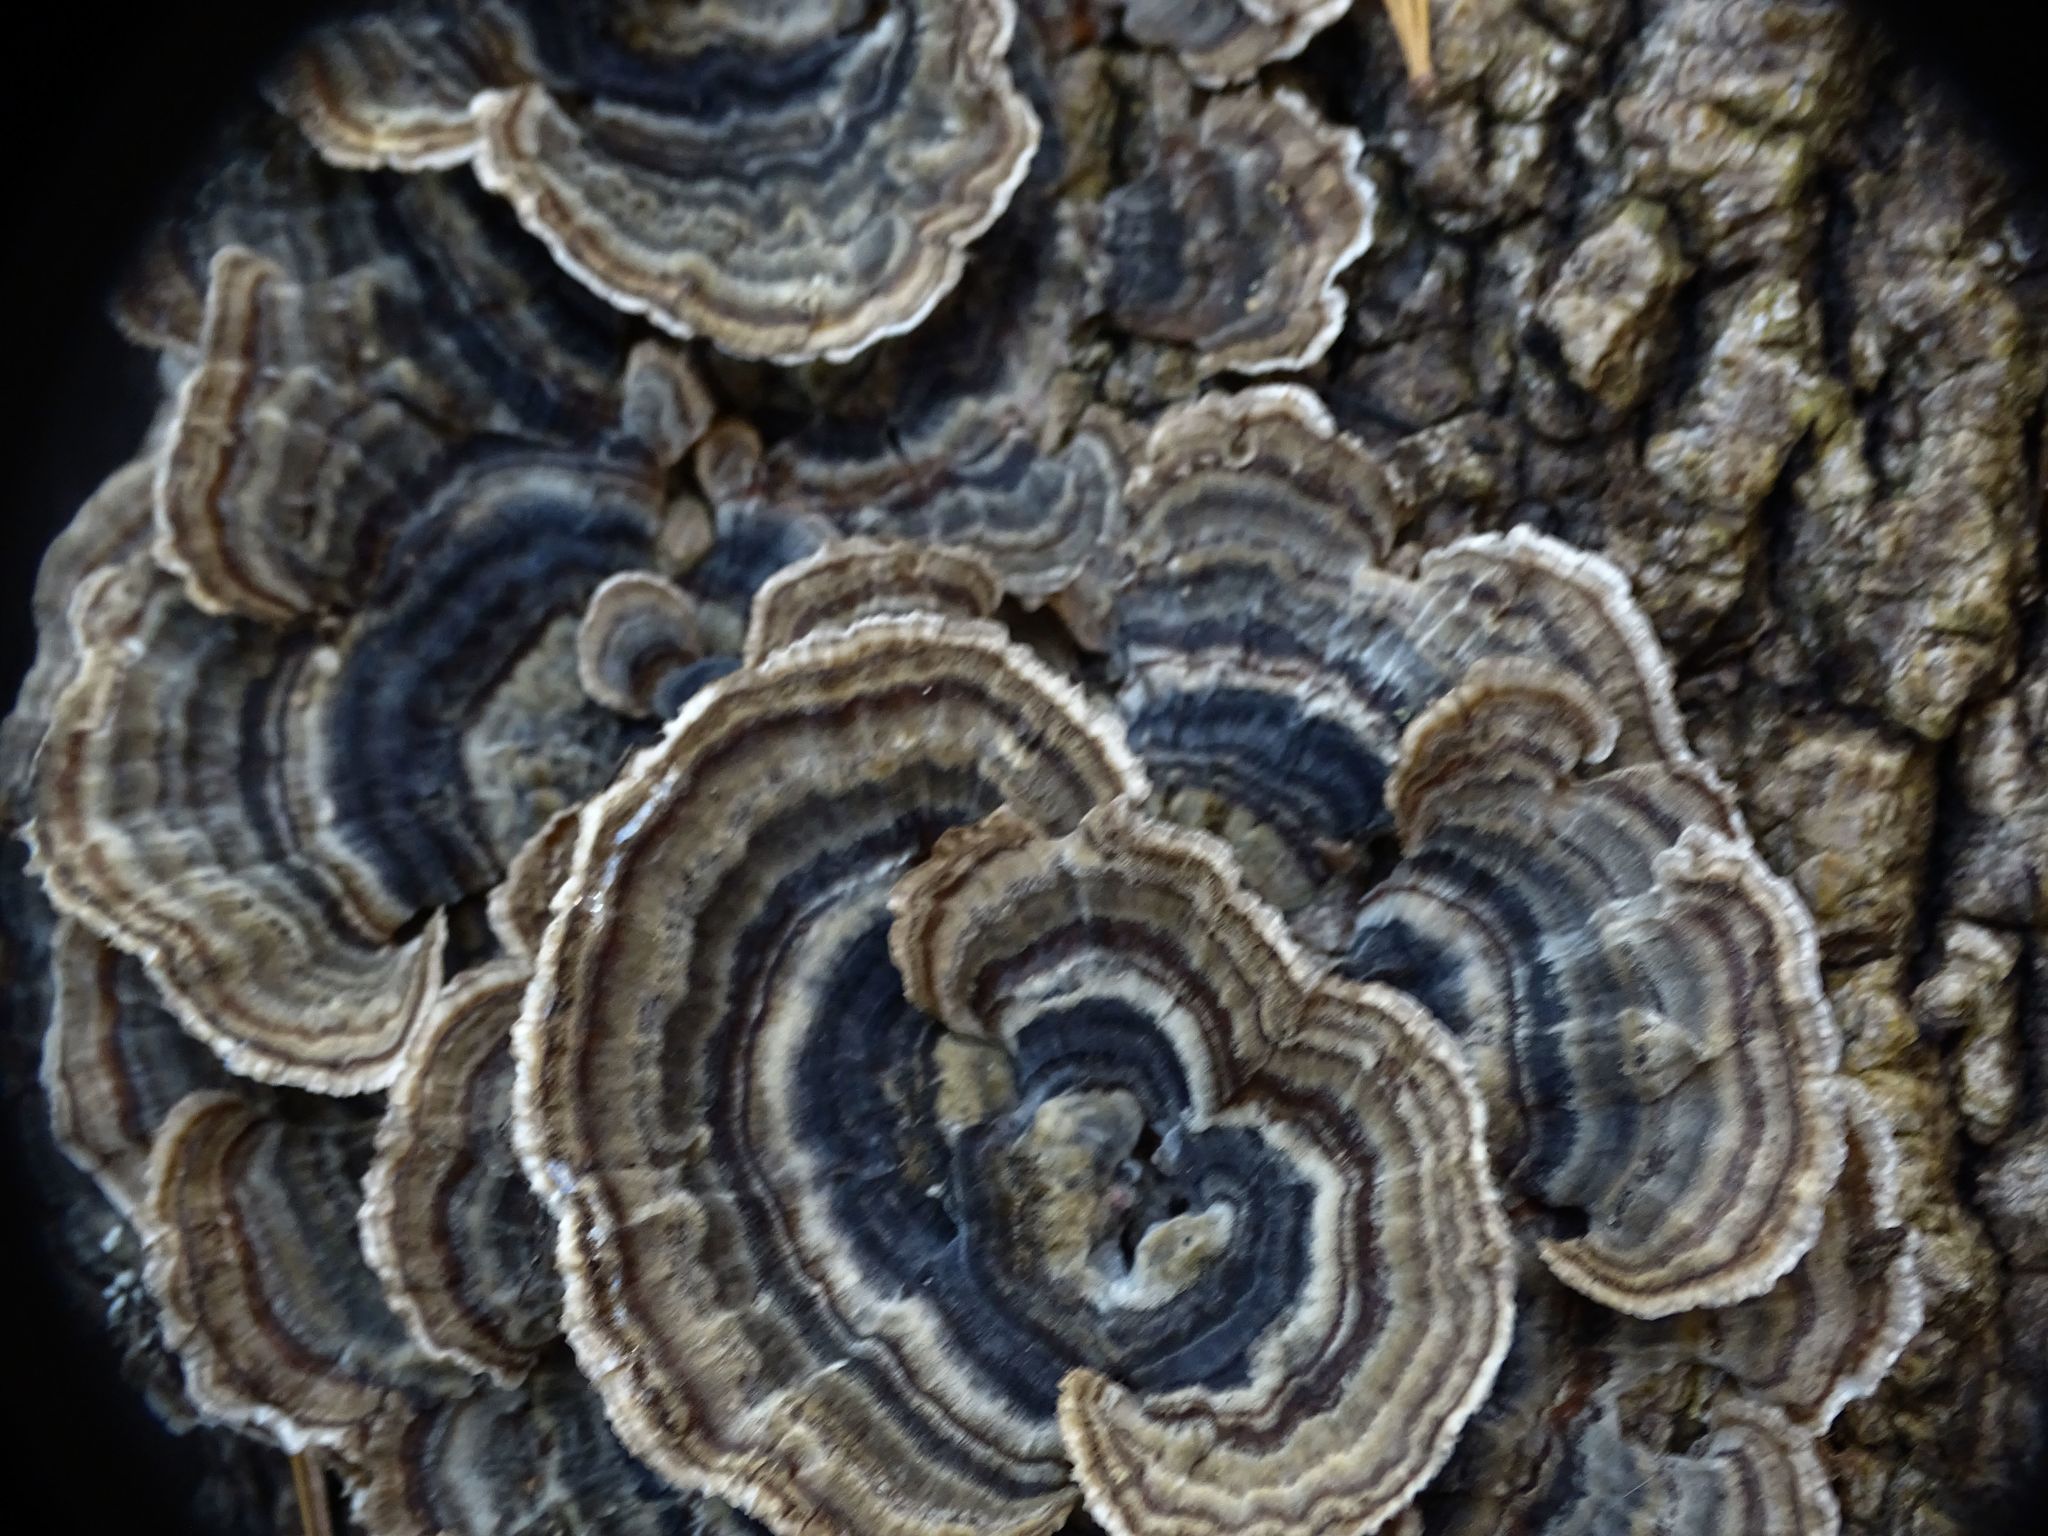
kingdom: Fungi
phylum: Basidiomycota
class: Agaricomycetes
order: Polyporales
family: Polyporaceae
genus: Trametes
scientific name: Trametes versicolor
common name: Turkeytail
